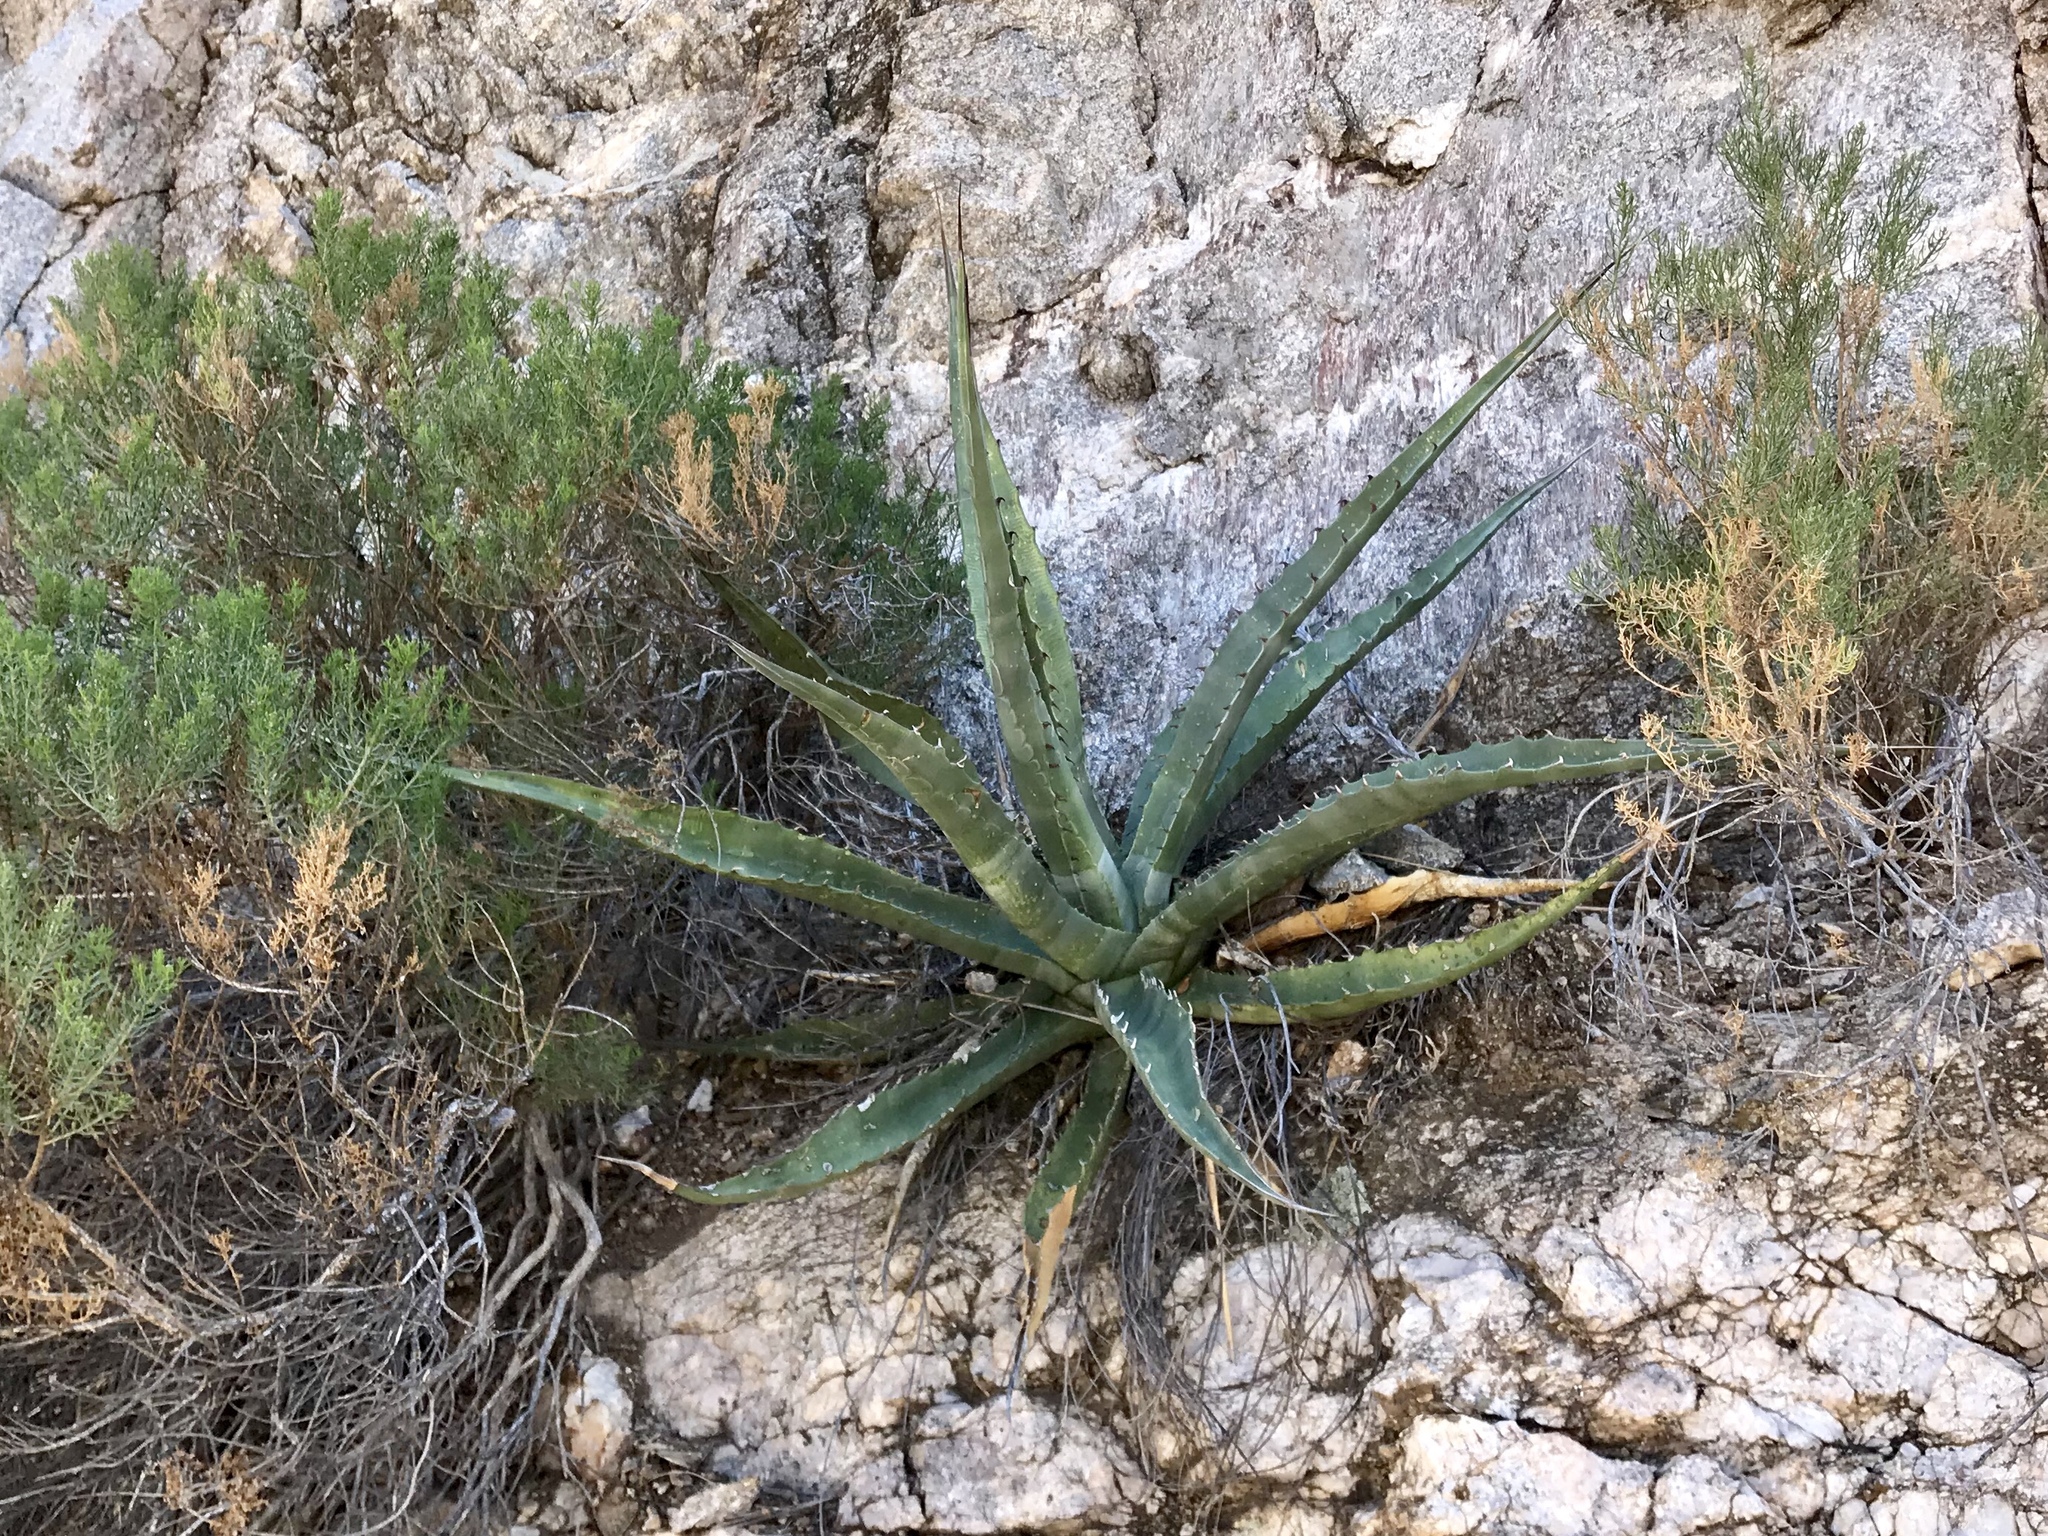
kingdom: Plantae
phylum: Tracheophyta
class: Liliopsida
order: Asparagales
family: Asparagaceae
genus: Agave
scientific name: Agave palmeri
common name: Palmer agave
